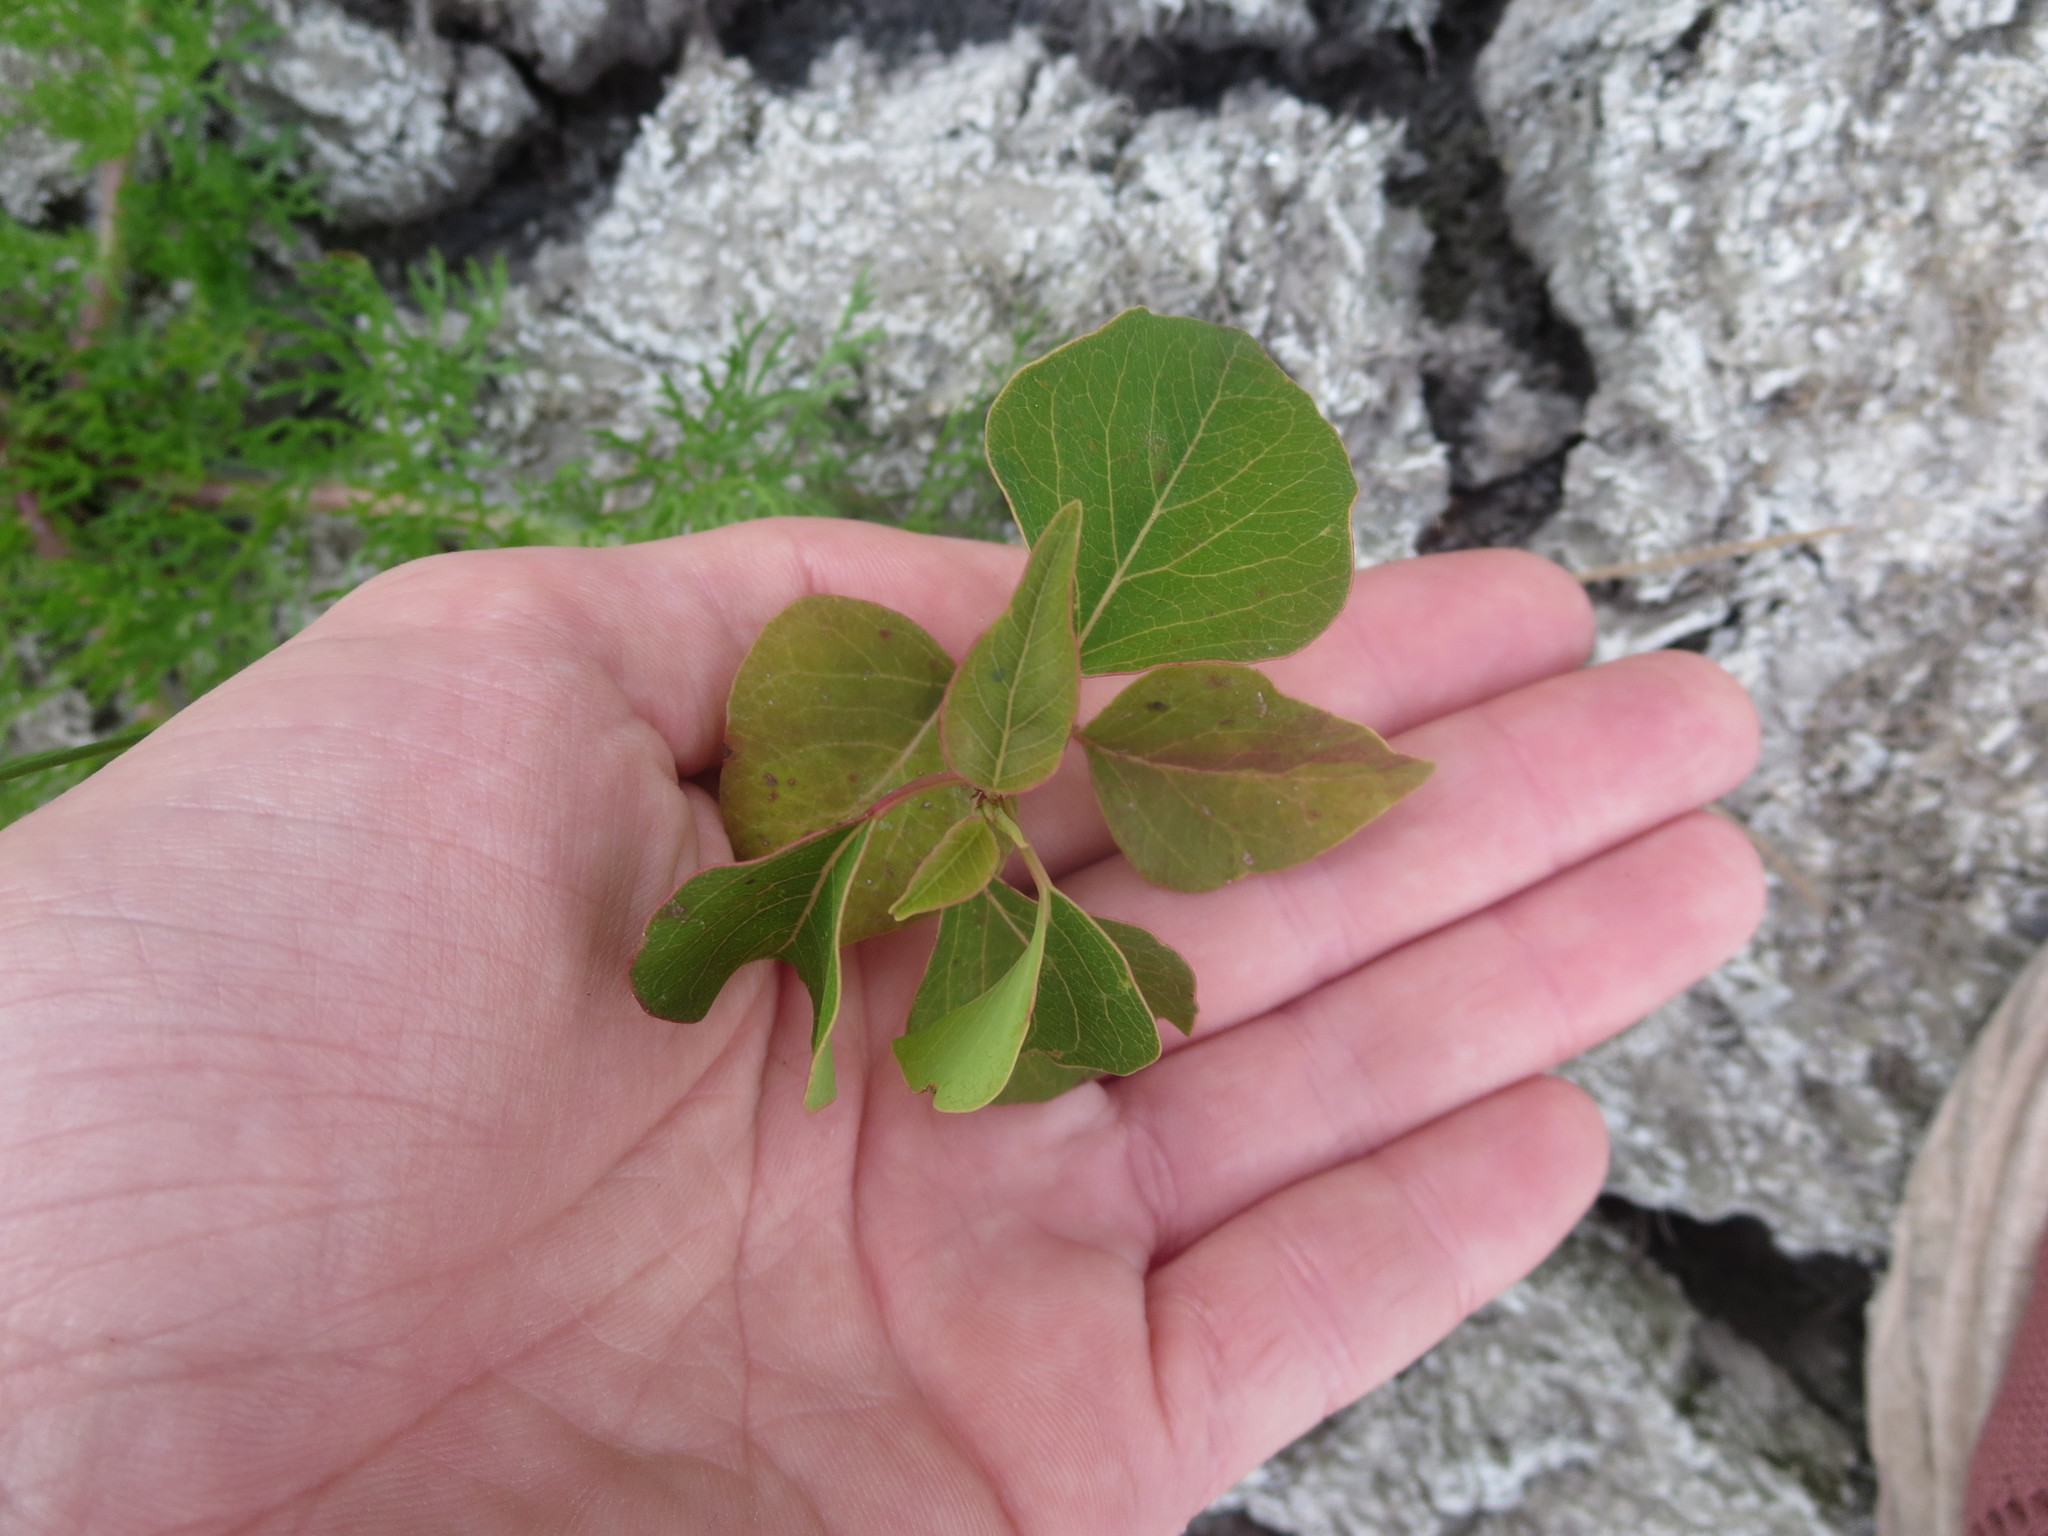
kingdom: Plantae
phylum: Tracheophyta
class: Magnoliopsida
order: Malpighiales
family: Euphorbiaceae
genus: Triadica
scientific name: Triadica sebifera
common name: Chinese tallow
